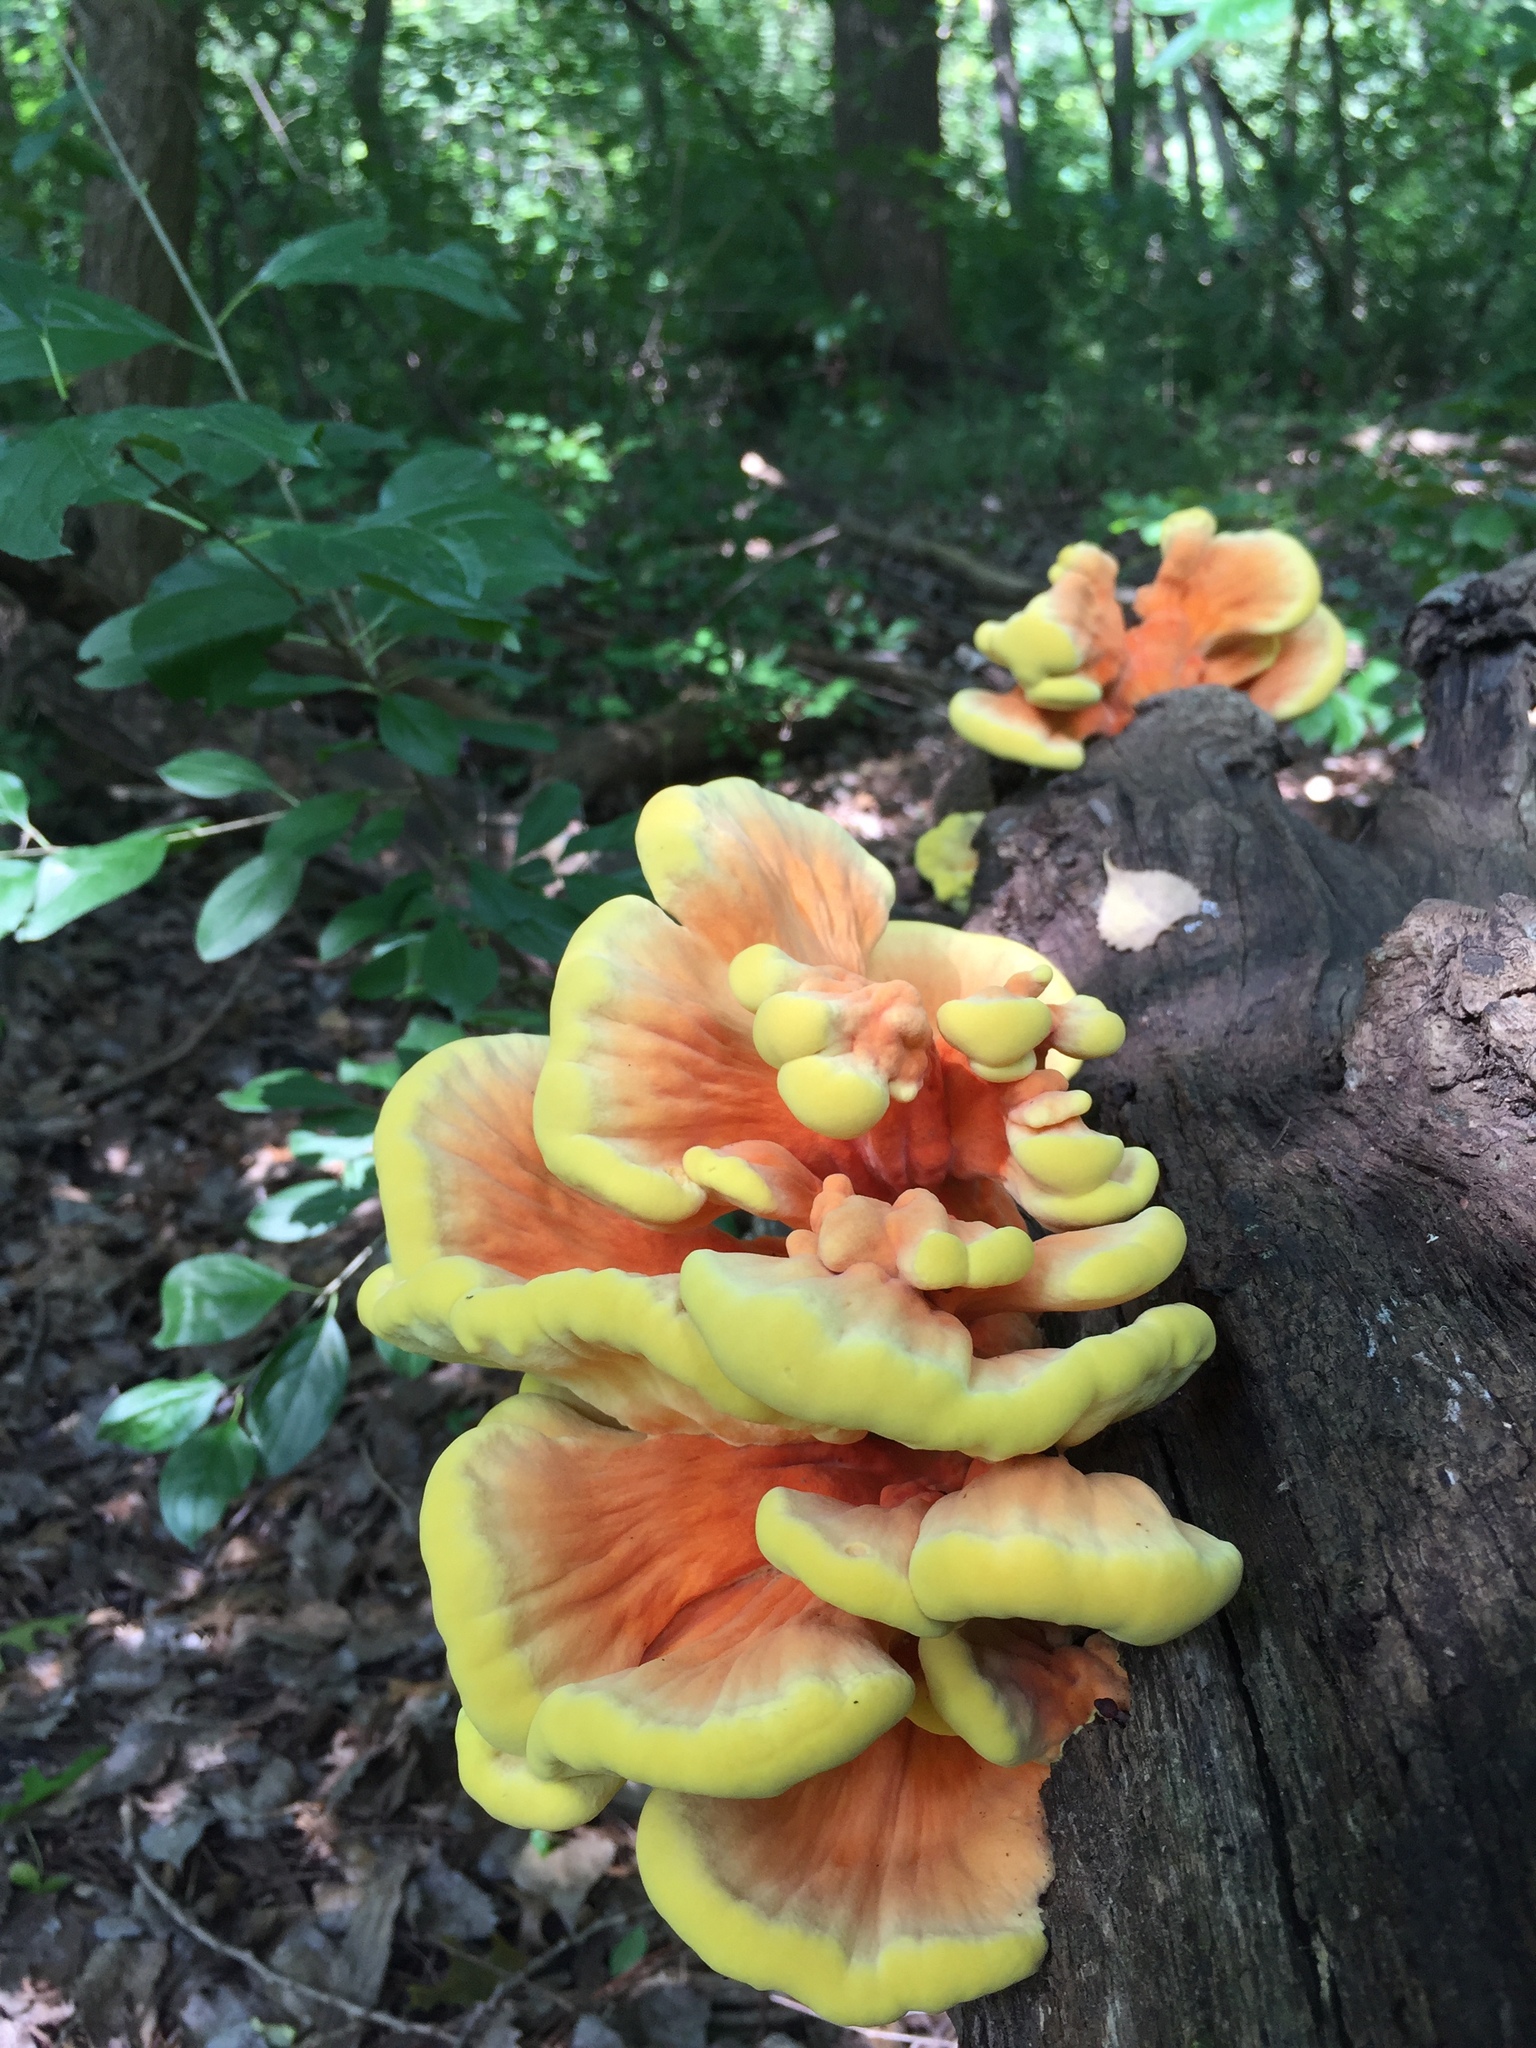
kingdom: Fungi
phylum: Basidiomycota
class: Agaricomycetes
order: Polyporales
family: Laetiporaceae
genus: Laetiporus
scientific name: Laetiporus sulphureus
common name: Chicken of the woods
